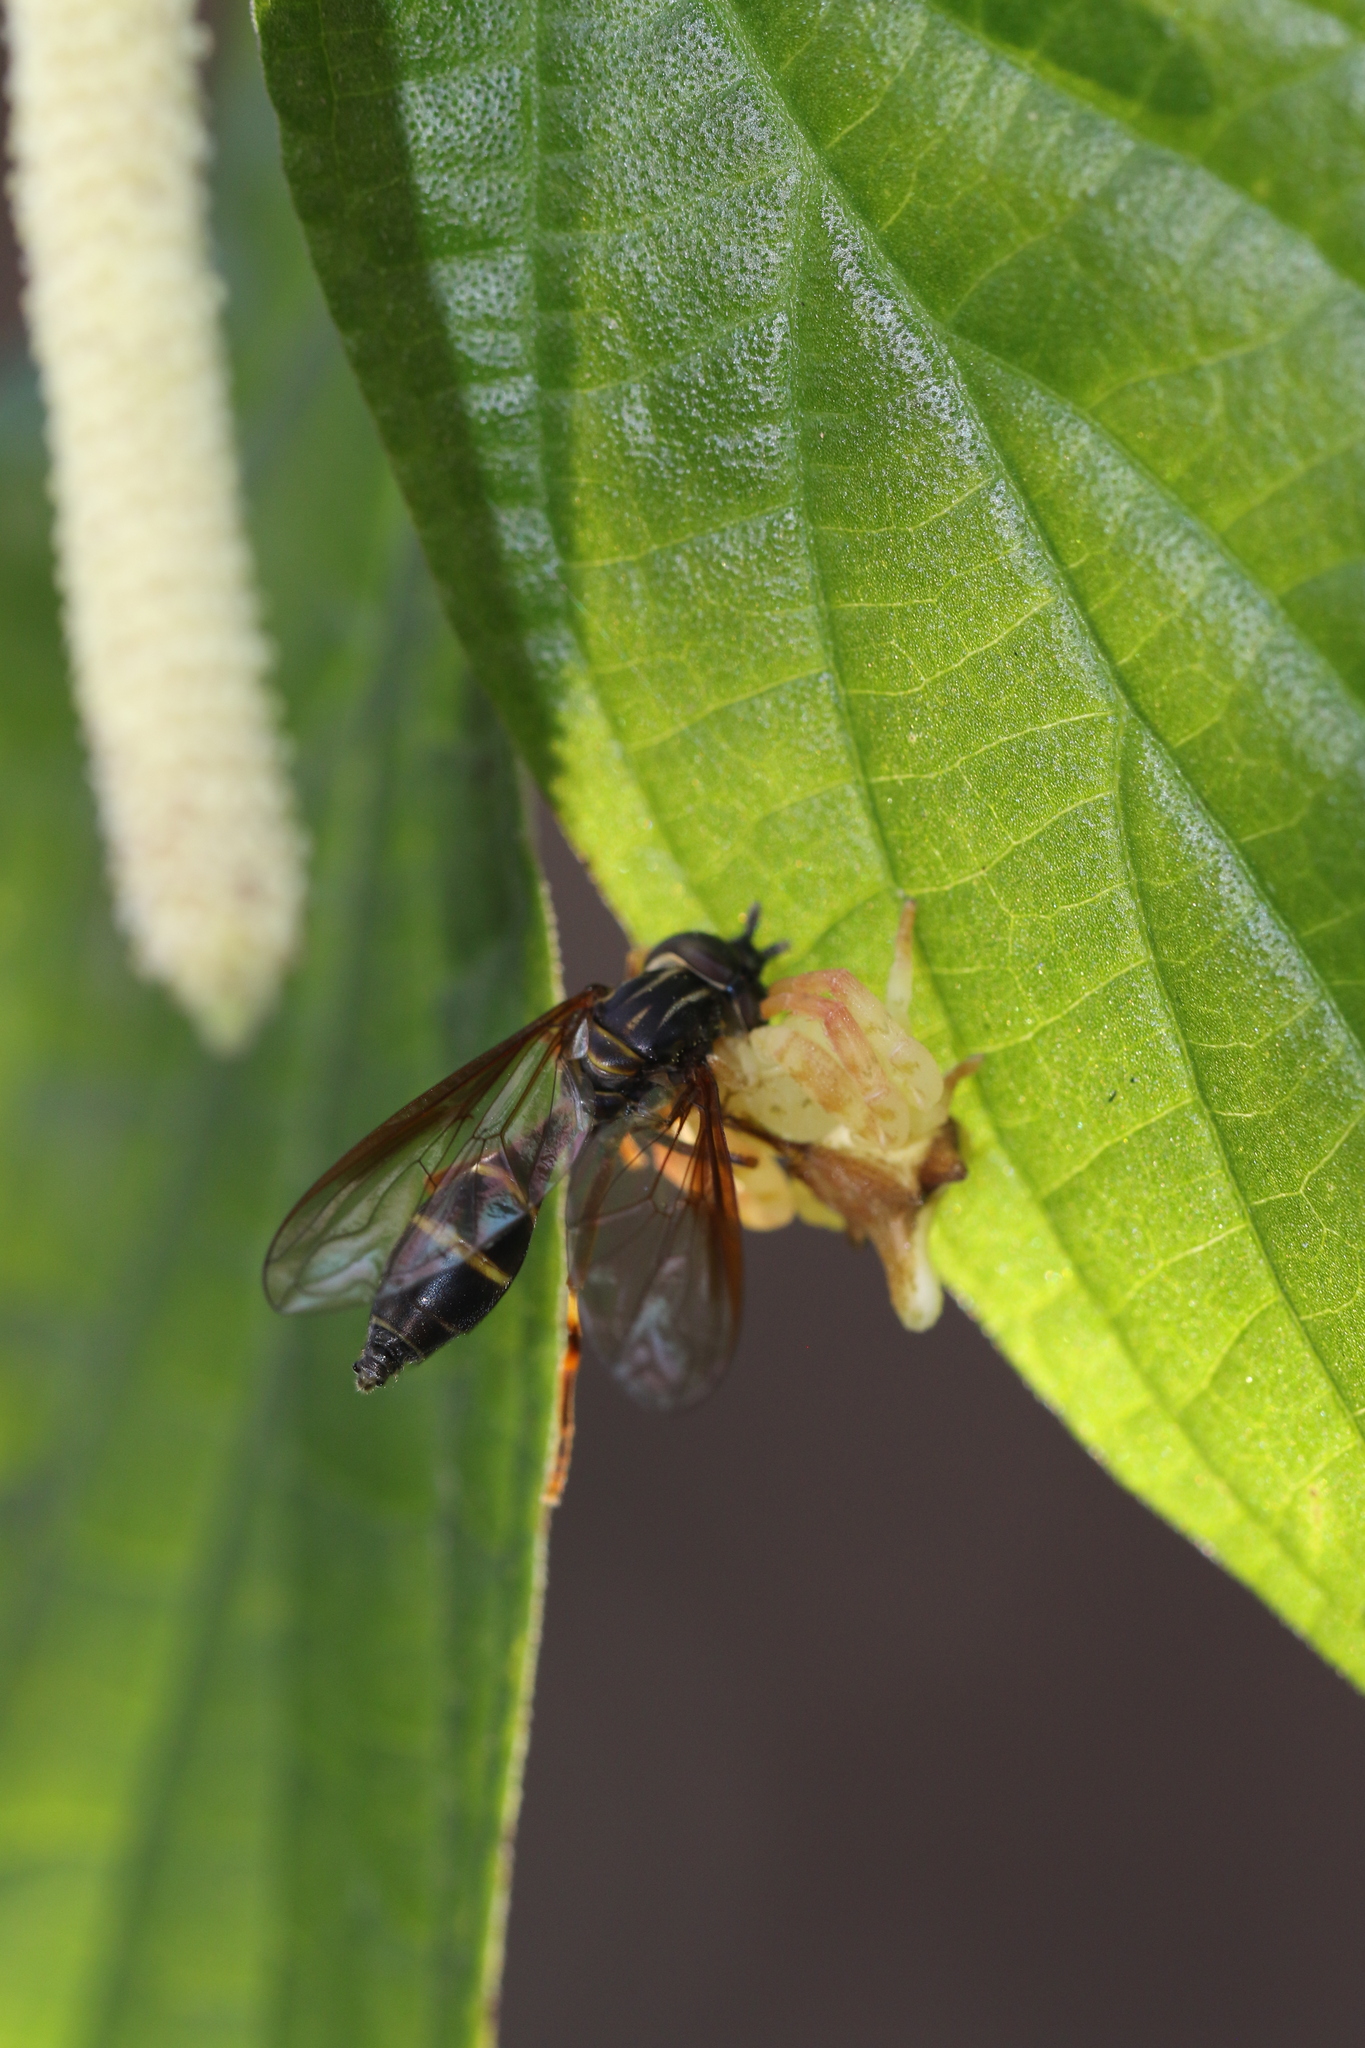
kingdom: Animalia
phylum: Arthropoda
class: Arachnida
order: Araneae
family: Thomisidae
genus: Epicadus
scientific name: Epicadus rubripes
